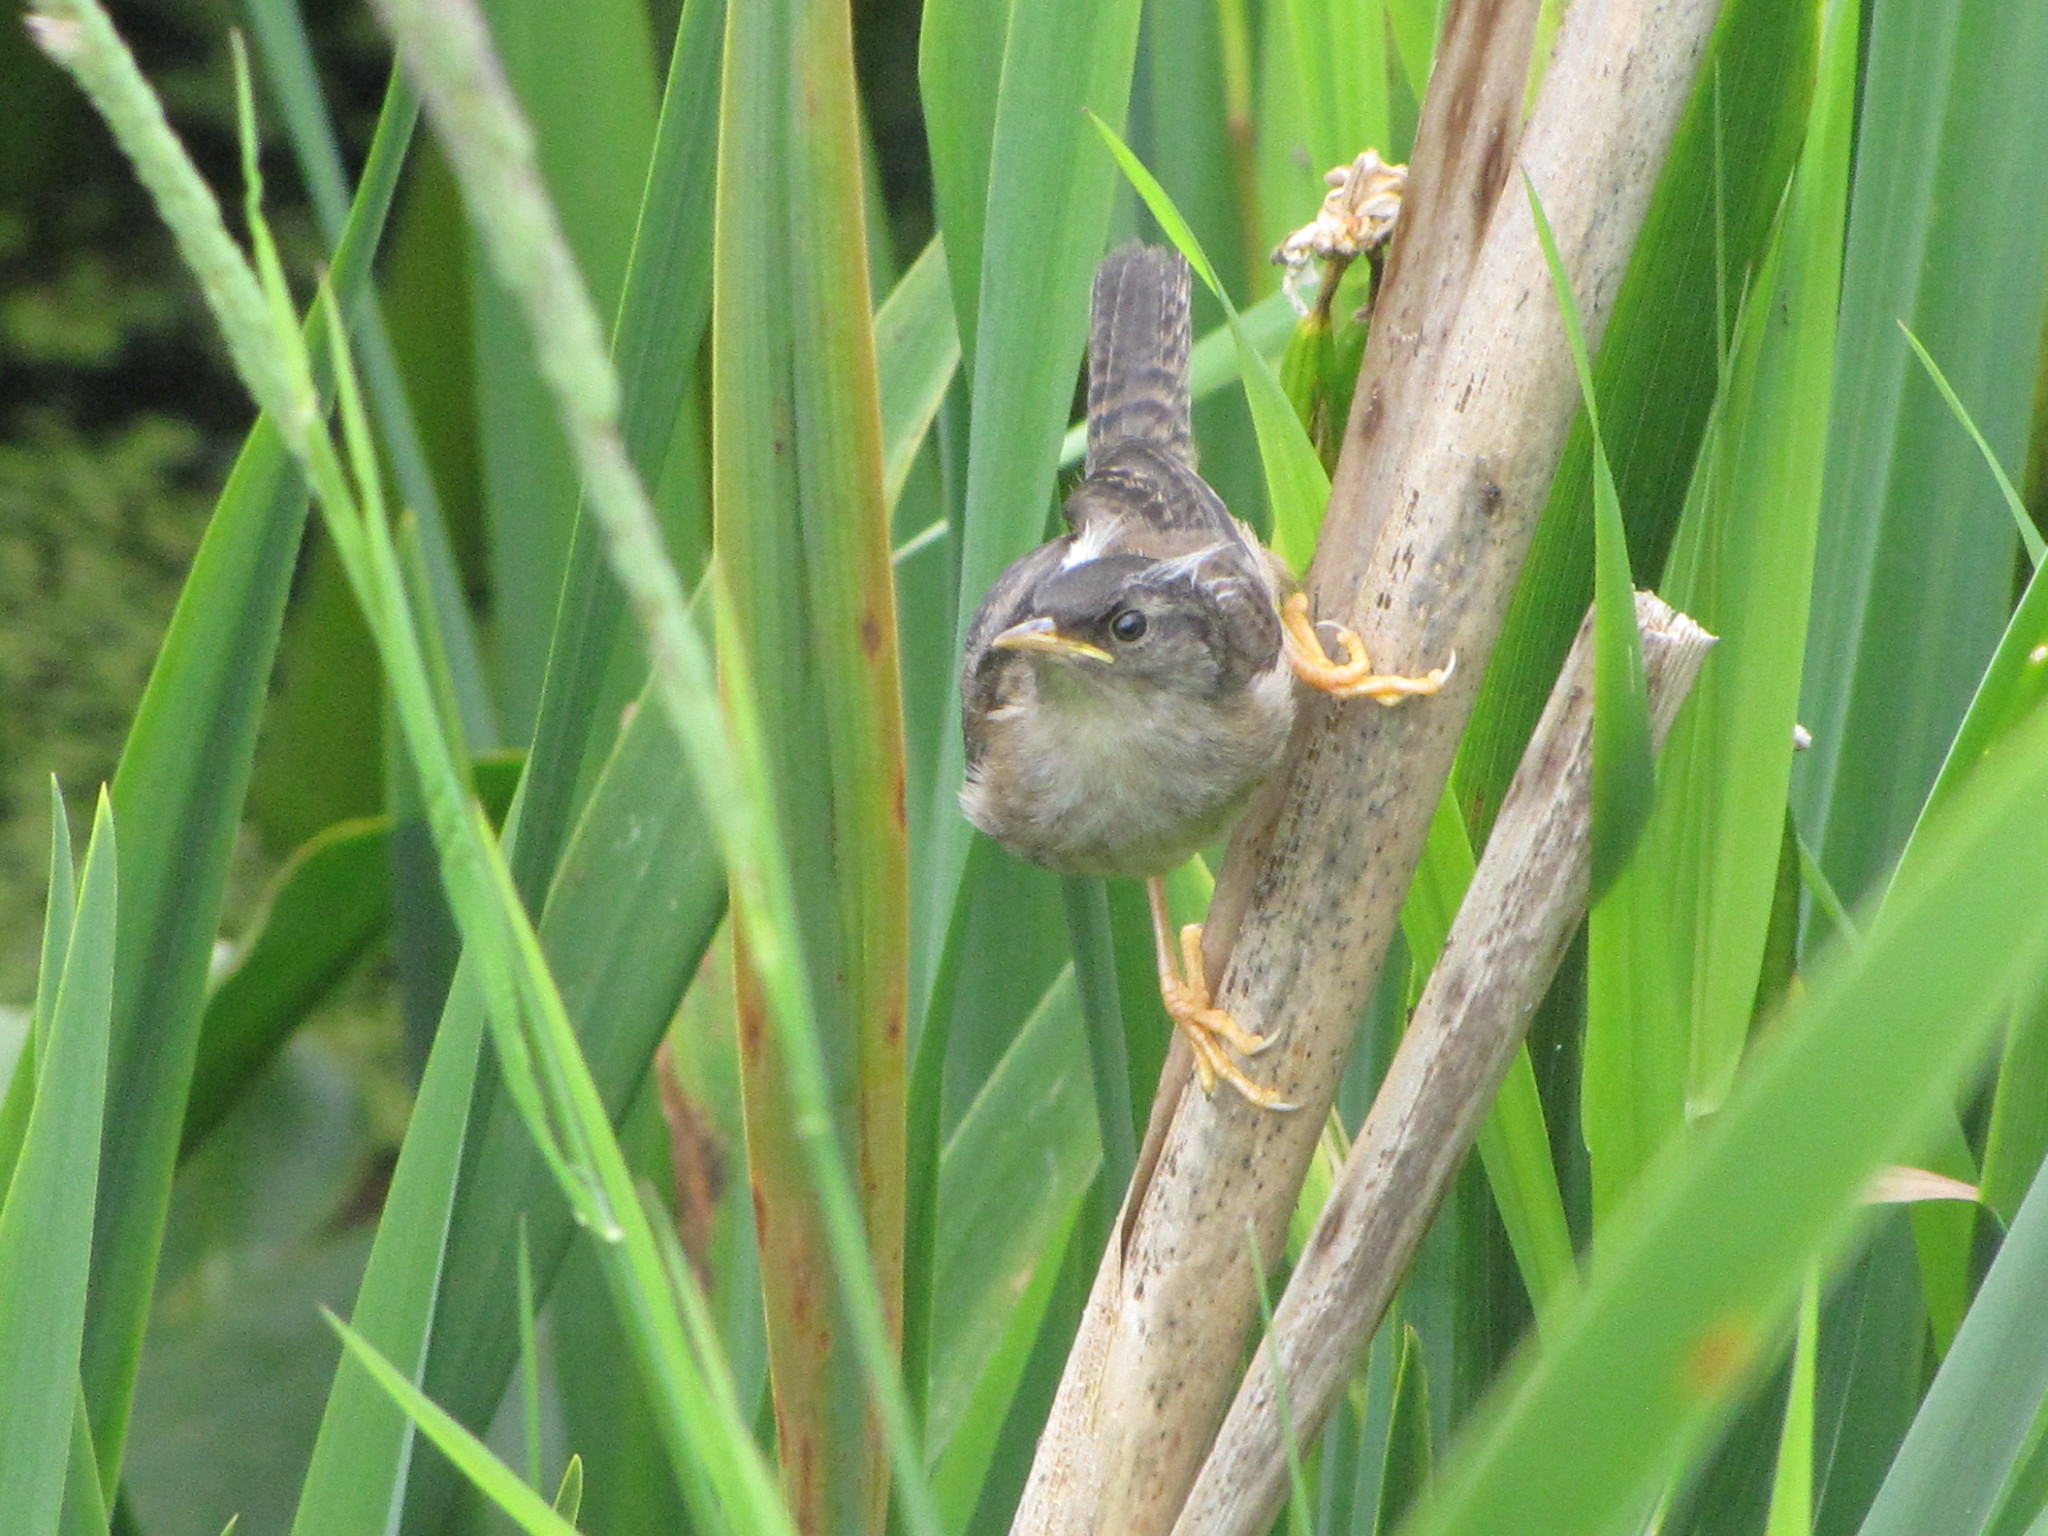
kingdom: Animalia
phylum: Chordata
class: Aves
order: Passeriformes
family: Troglodytidae
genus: Cistothorus
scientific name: Cistothorus palustris
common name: Marsh wren
